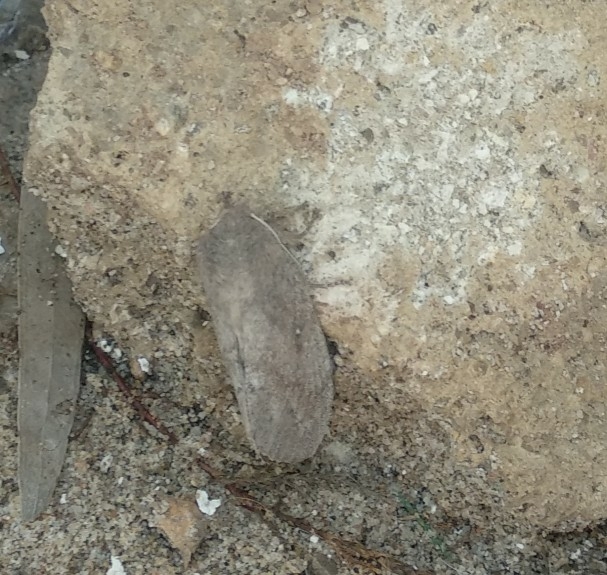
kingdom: Animalia
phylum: Arthropoda
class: Insecta
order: Lepidoptera
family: Lasiocampidae
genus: Dendrolimus
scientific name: Dendrolimus pini
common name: Pine-tree lappet
